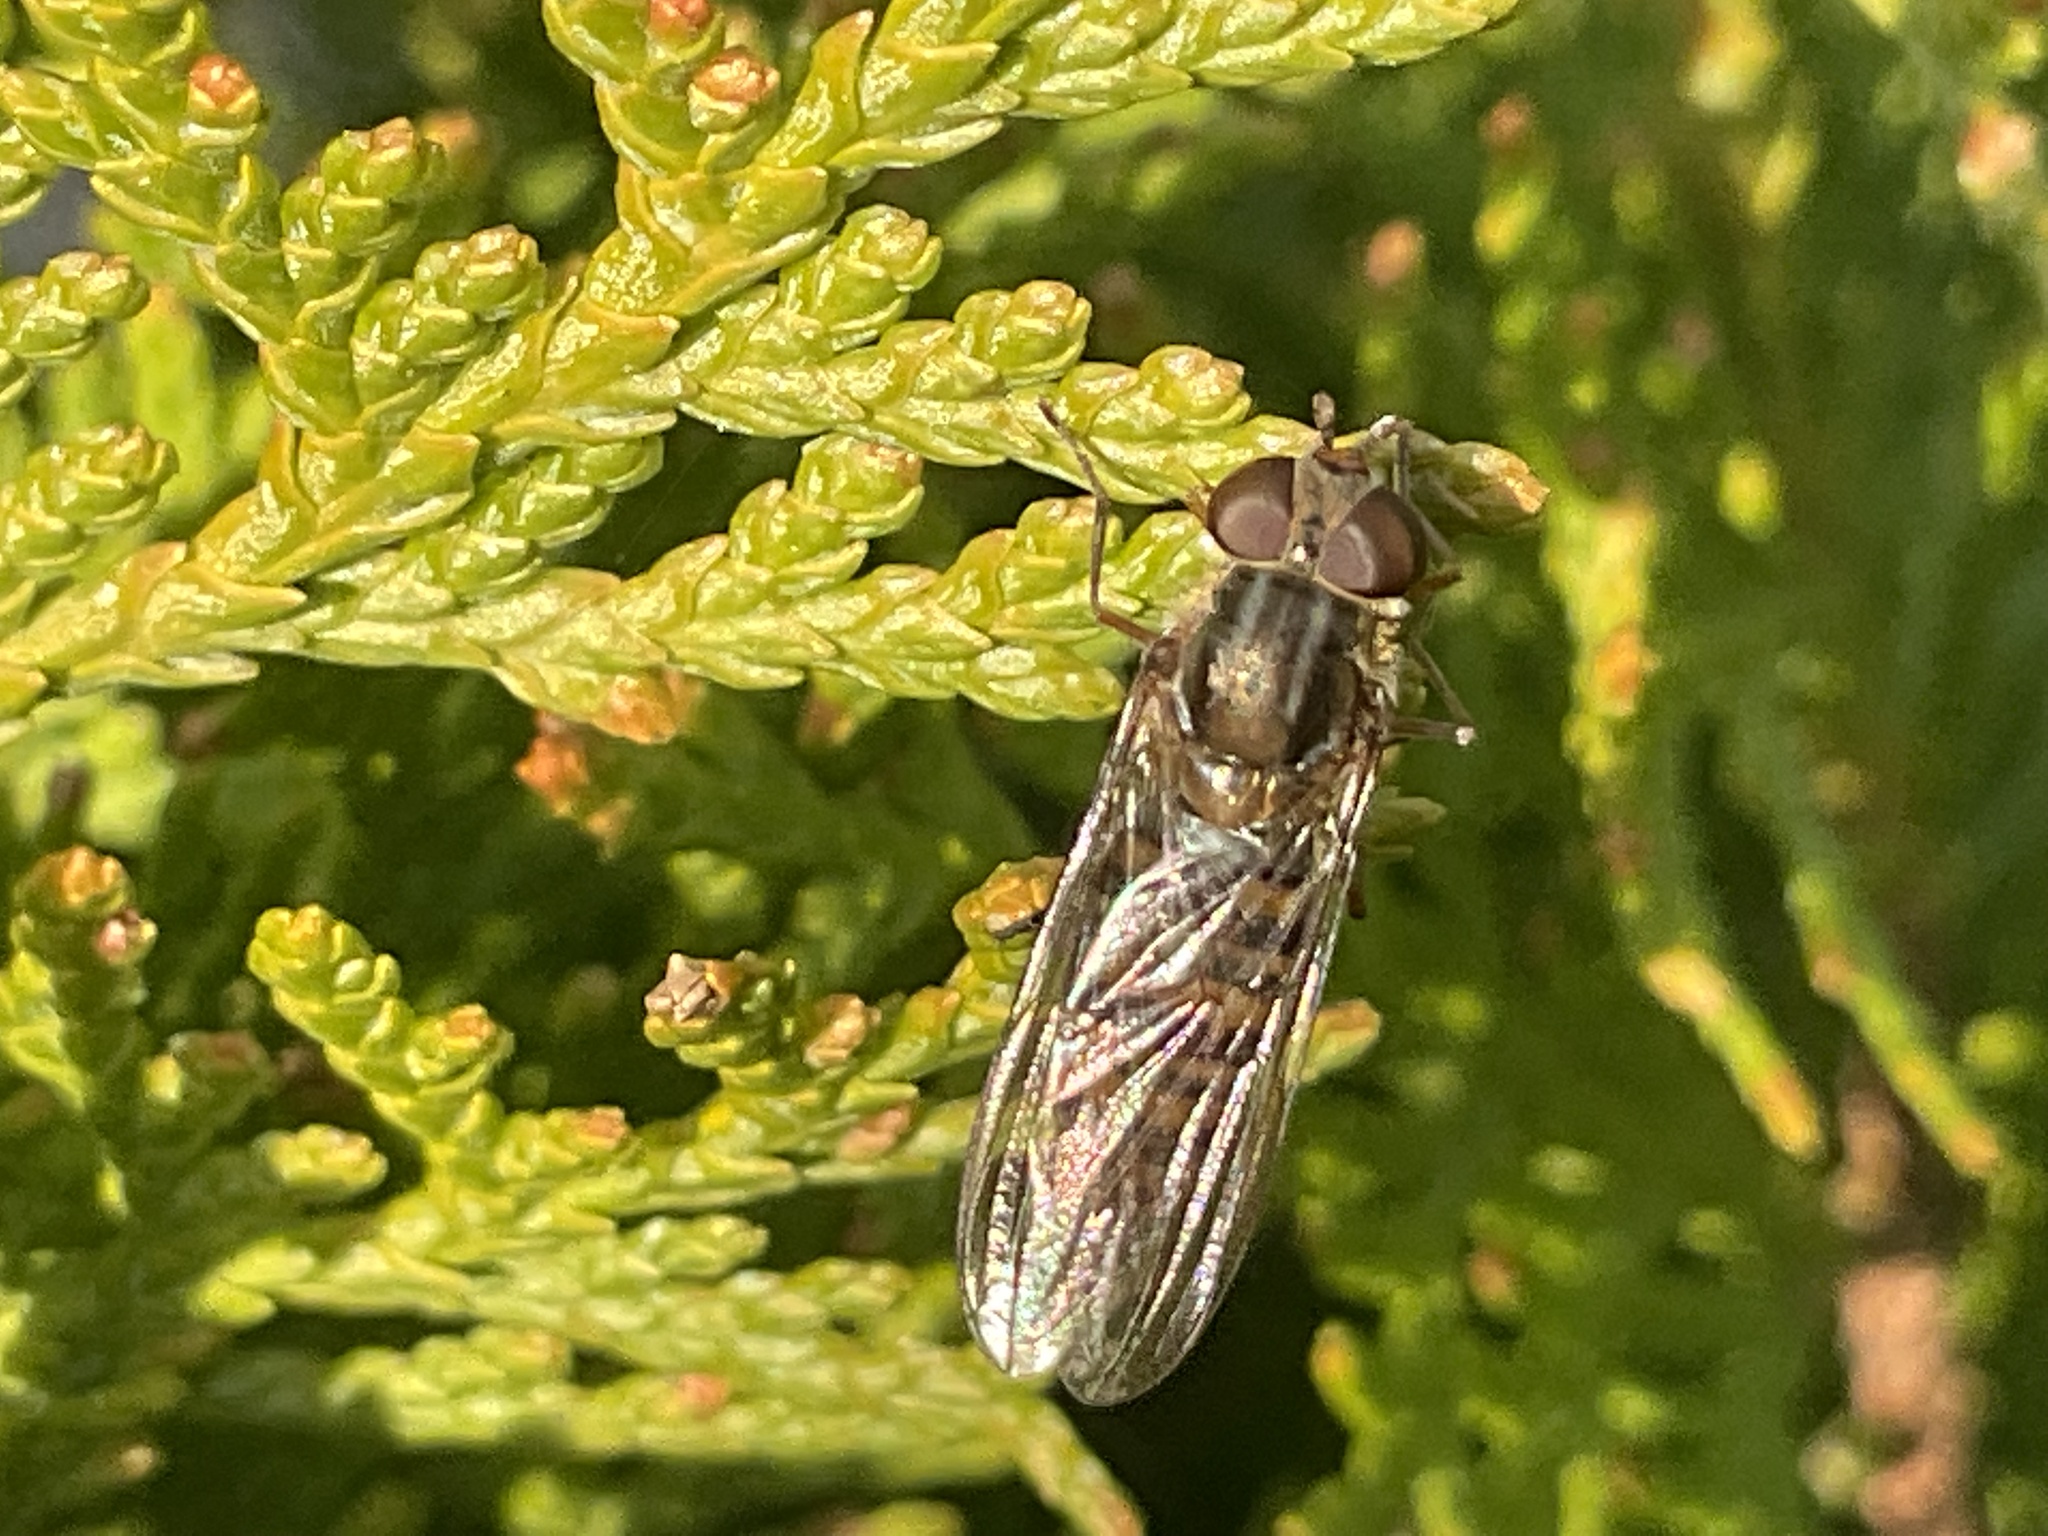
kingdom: Animalia
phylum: Arthropoda
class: Insecta
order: Diptera
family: Syrphidae
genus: Episyrphus
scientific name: Episyrphus balteatus
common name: Marmalade hoverfly
